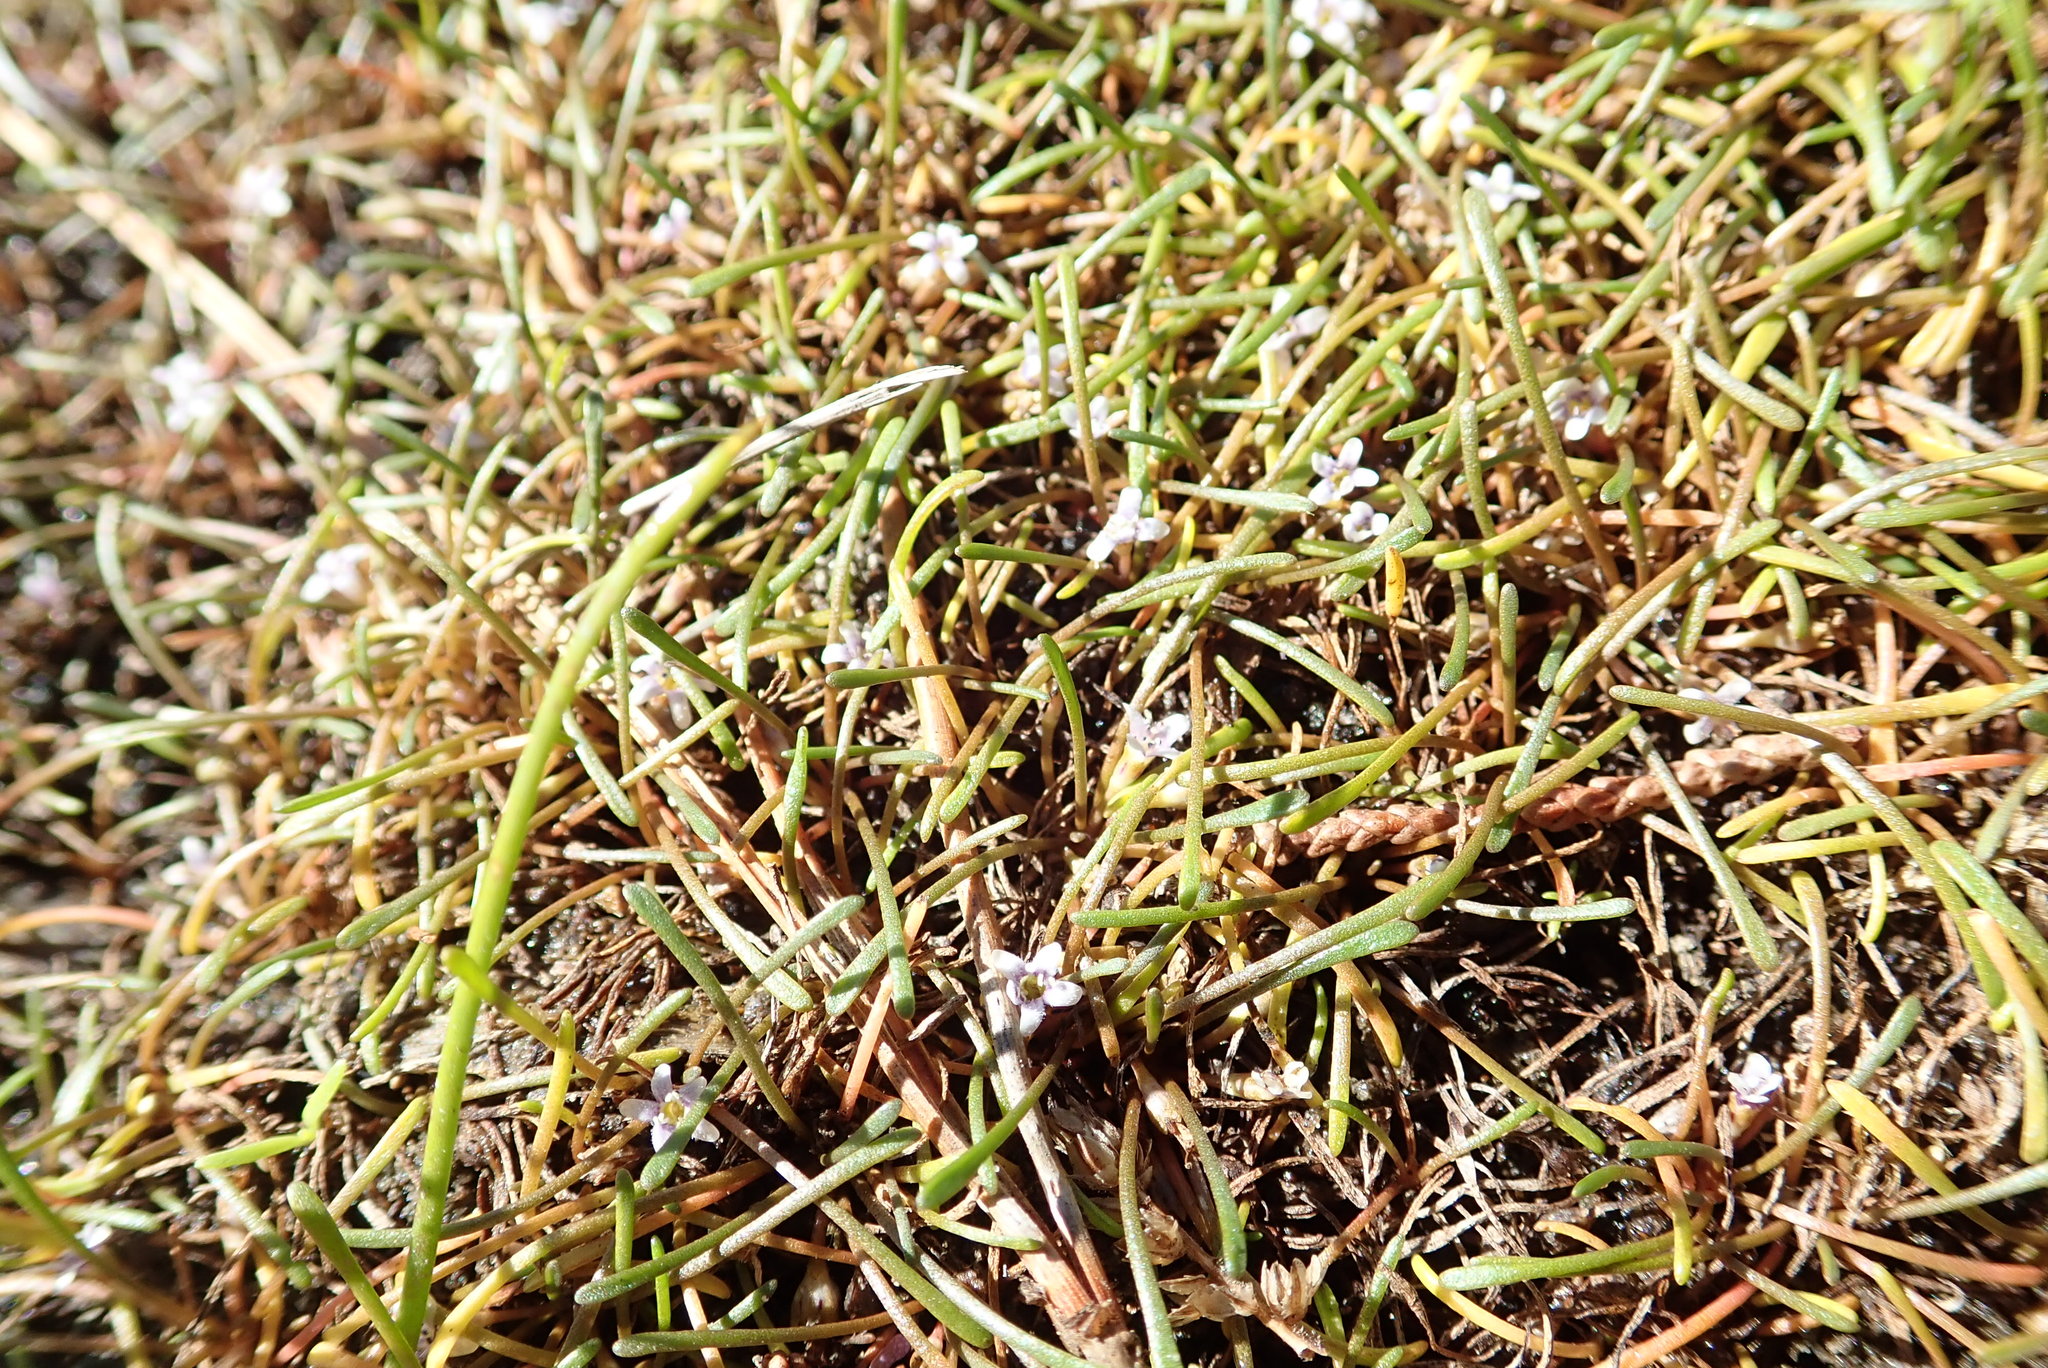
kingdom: Plantae
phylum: Tracheophyta
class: Magnoliopsida
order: Lamiales
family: Scrophulariaceae
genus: Limosella
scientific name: Limosella australis
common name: Welsh mudwort
